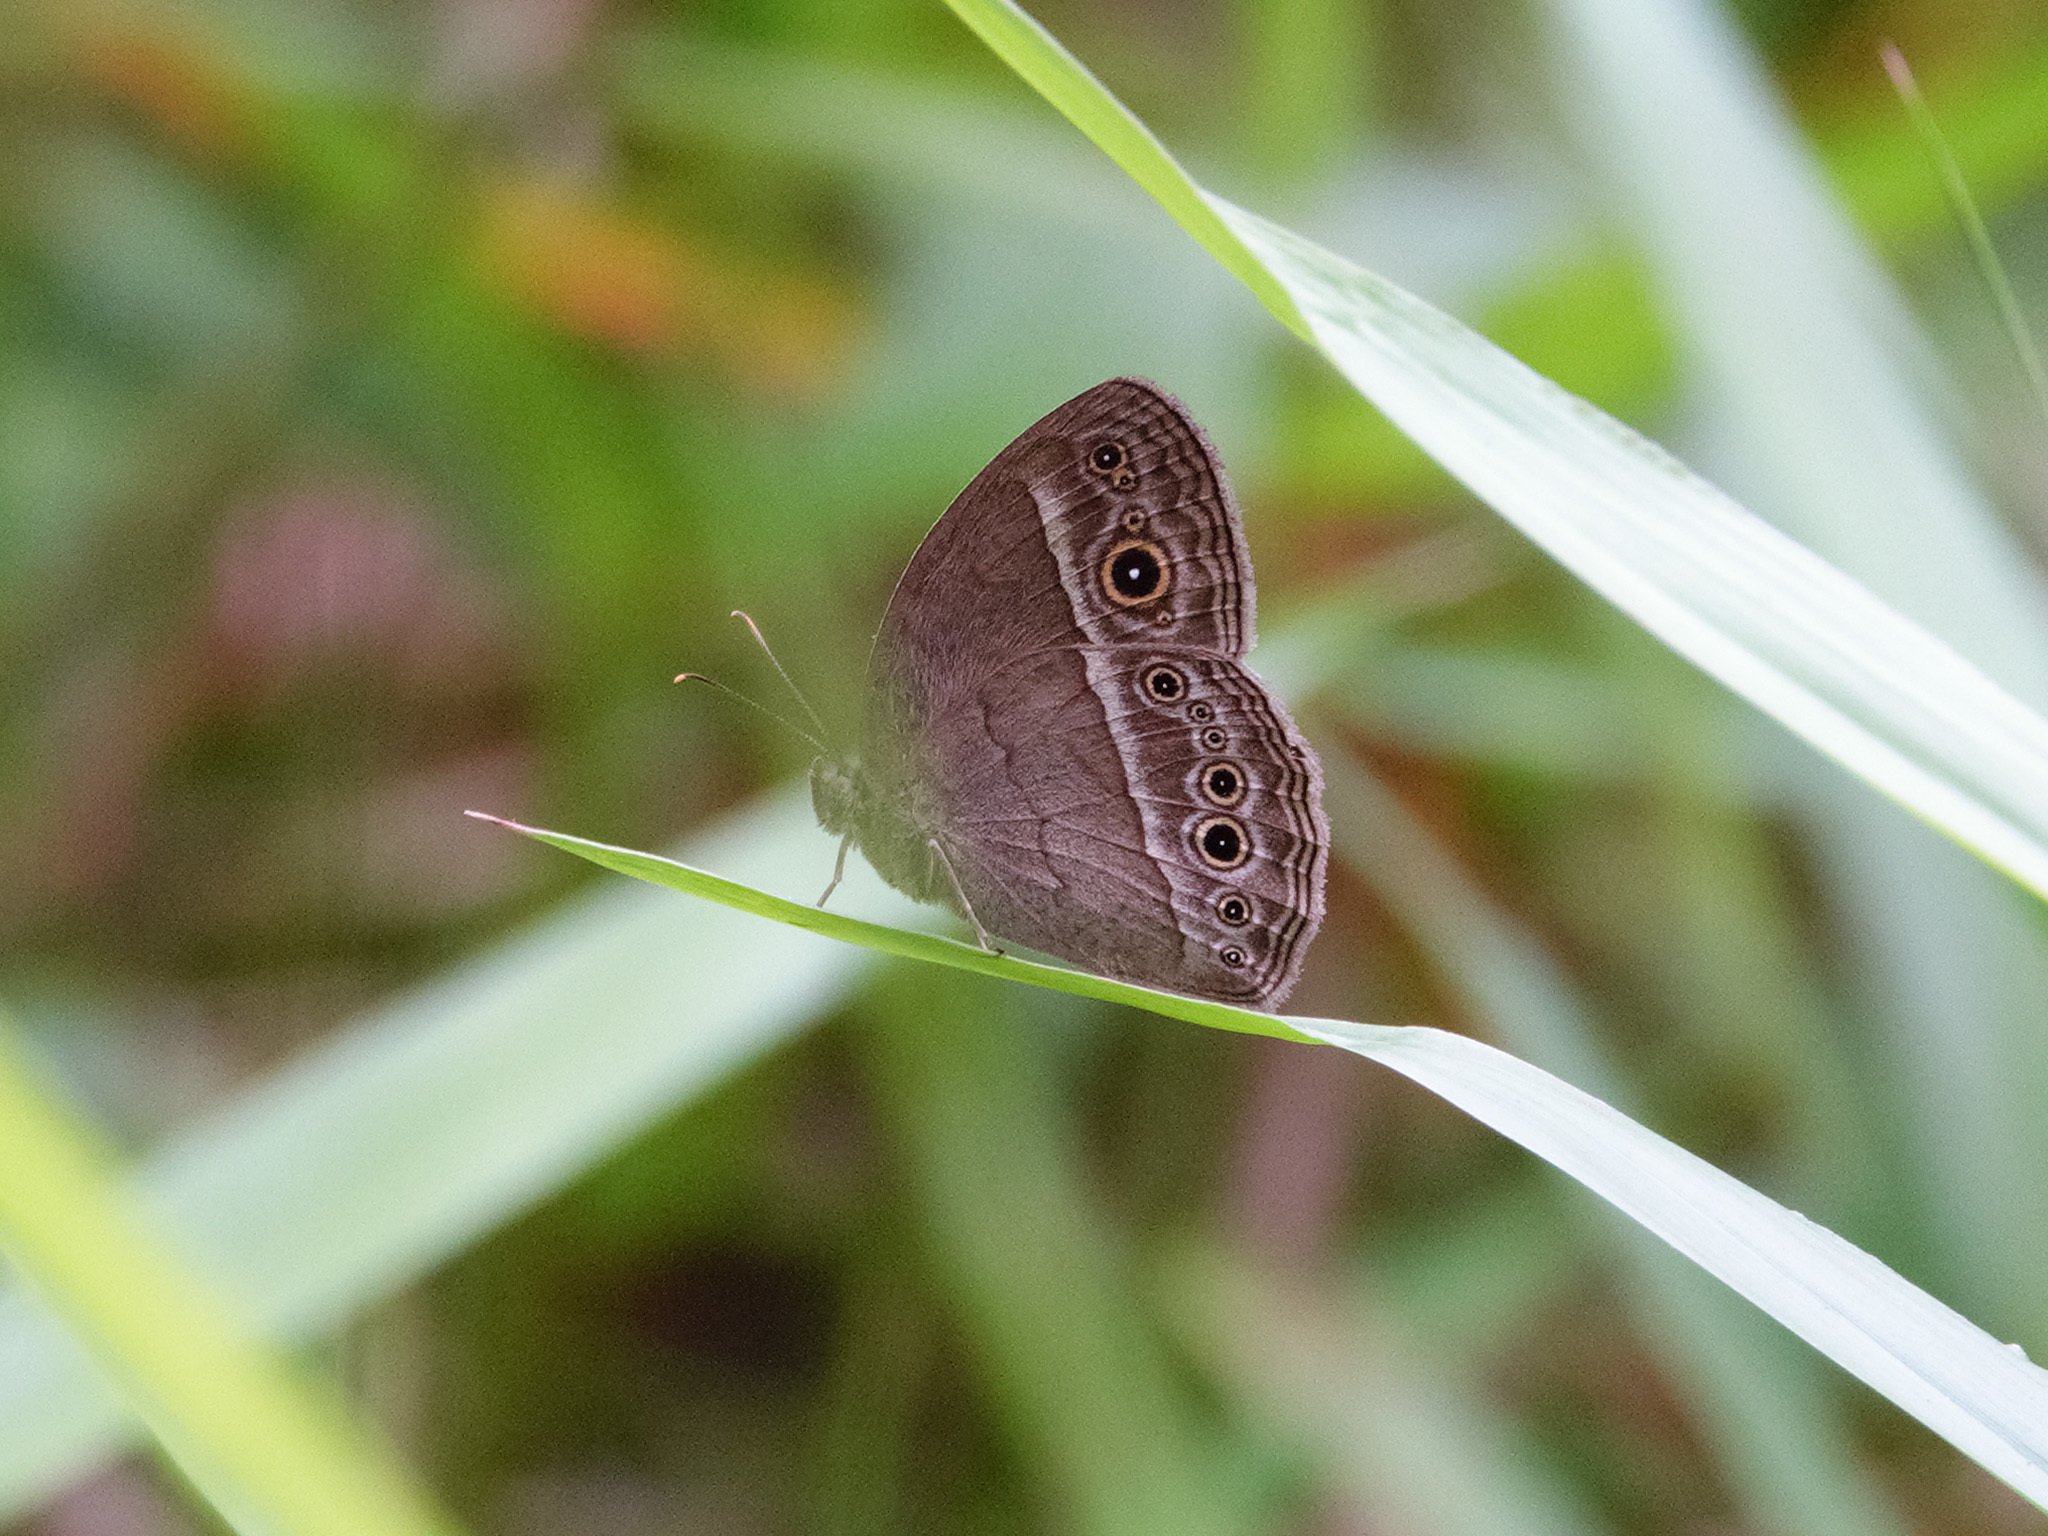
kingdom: Animalia
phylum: Arthropoda
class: Insecta
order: Lepidoptera
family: Nymphalidae
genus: Mycalesis
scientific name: Mycalesis perseoides
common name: Burmese bushbrown
